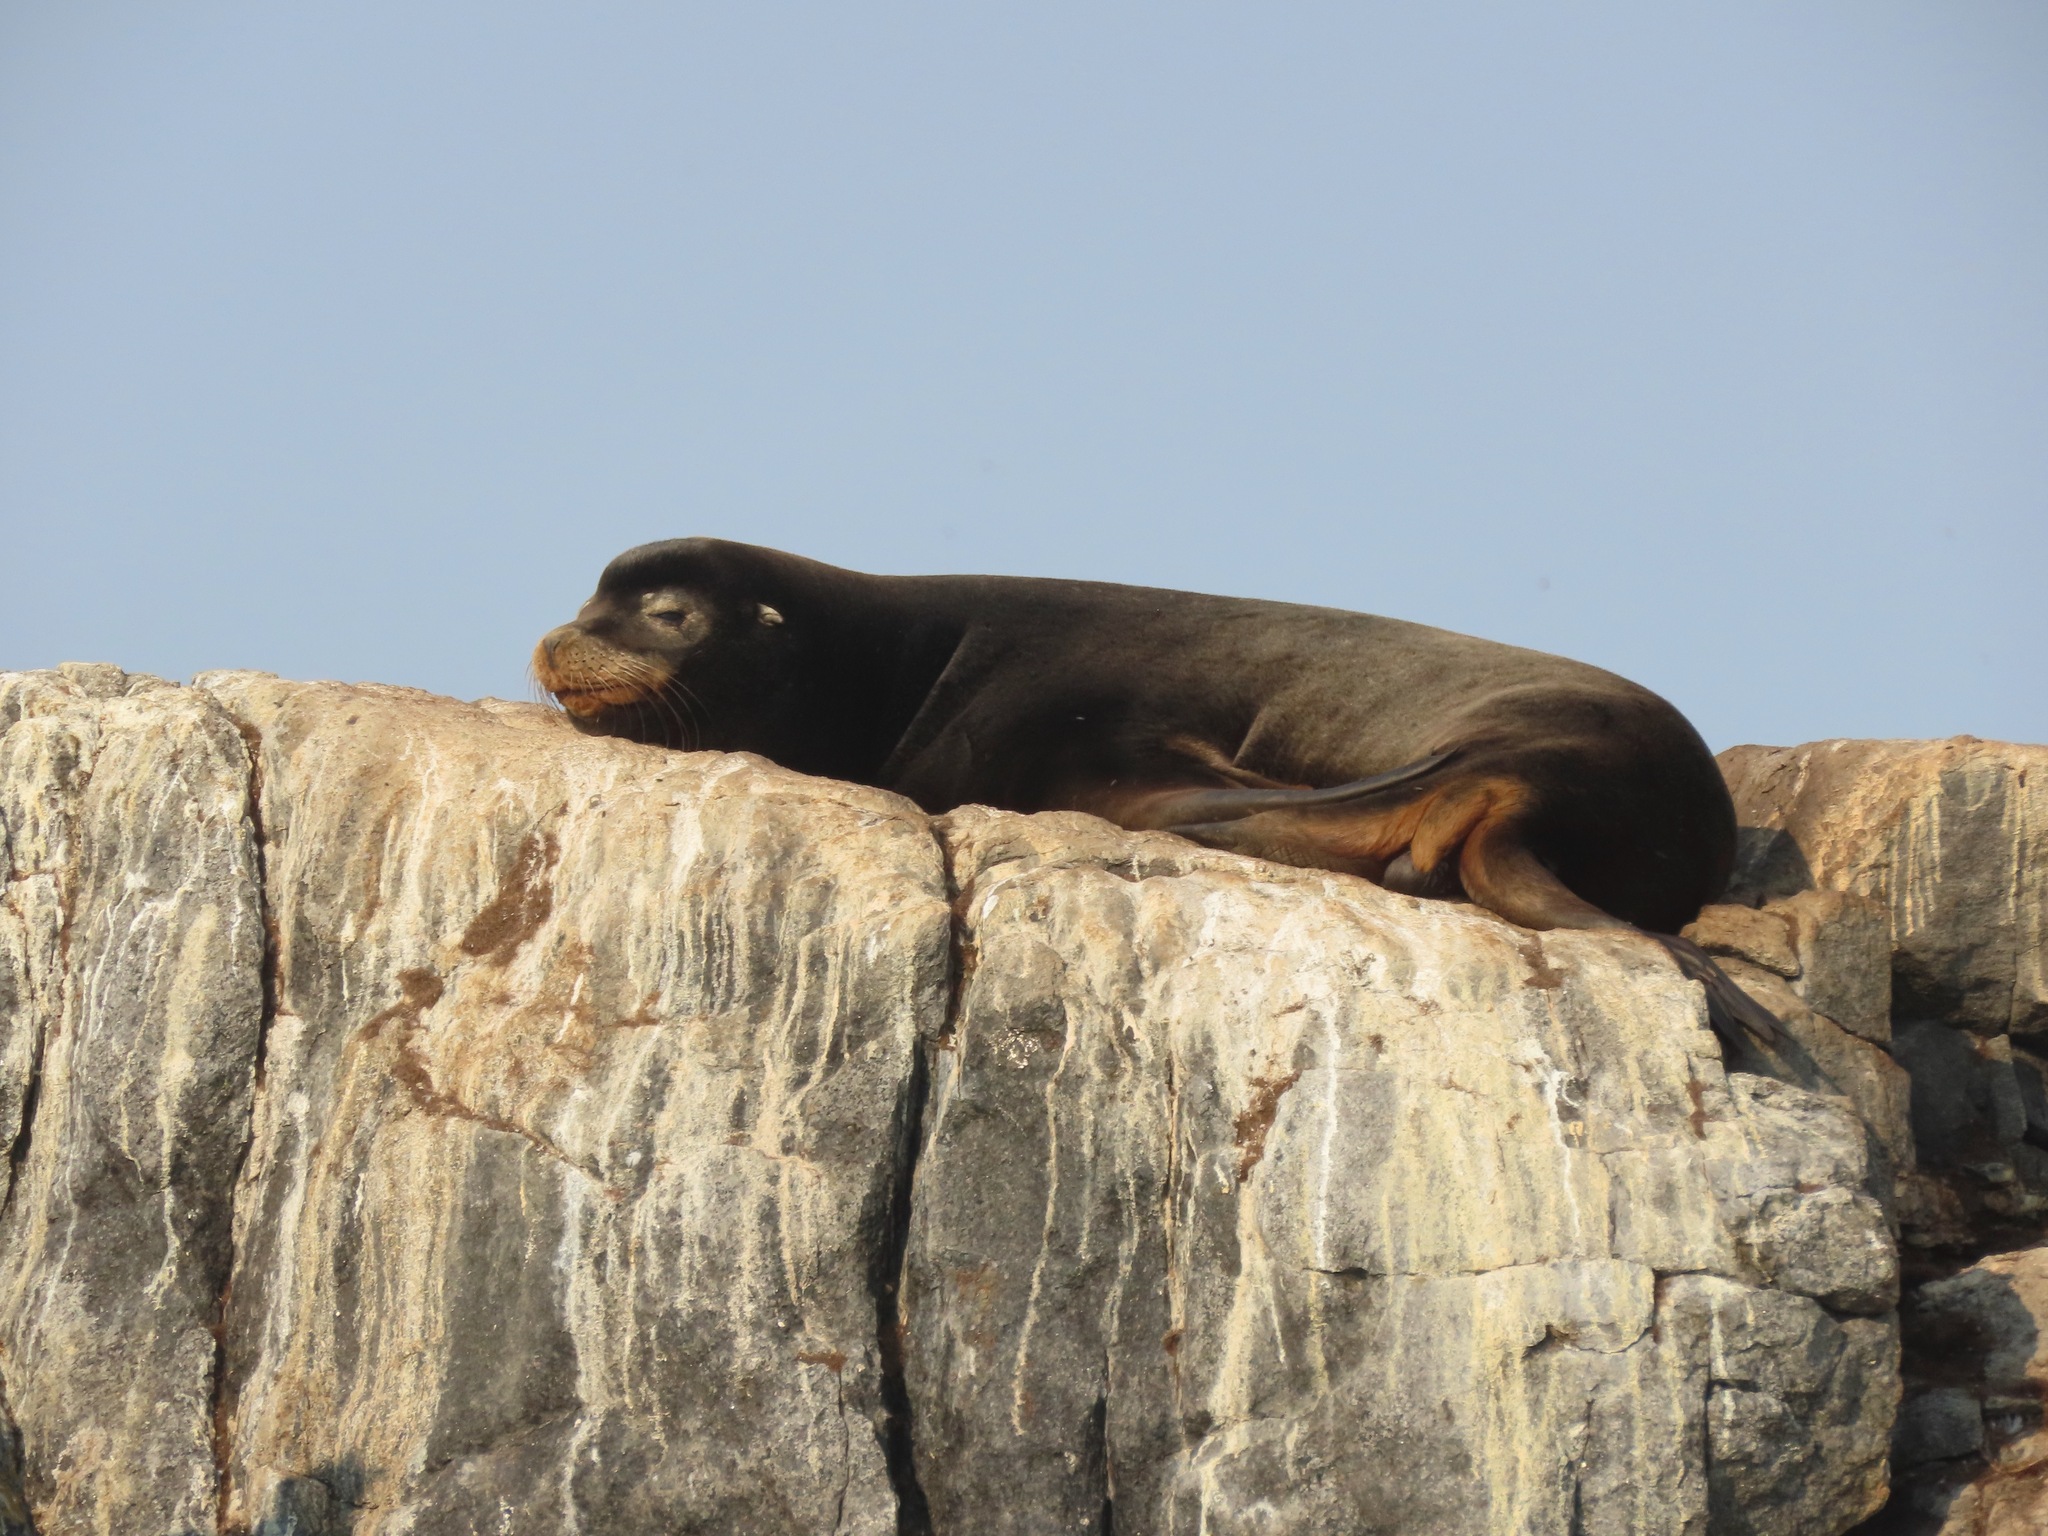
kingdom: Animalia
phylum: Chordata
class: Mammalia
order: Carnivora
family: Otariidae
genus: Zalophus
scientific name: Zalophus californianus
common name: California sea lion
